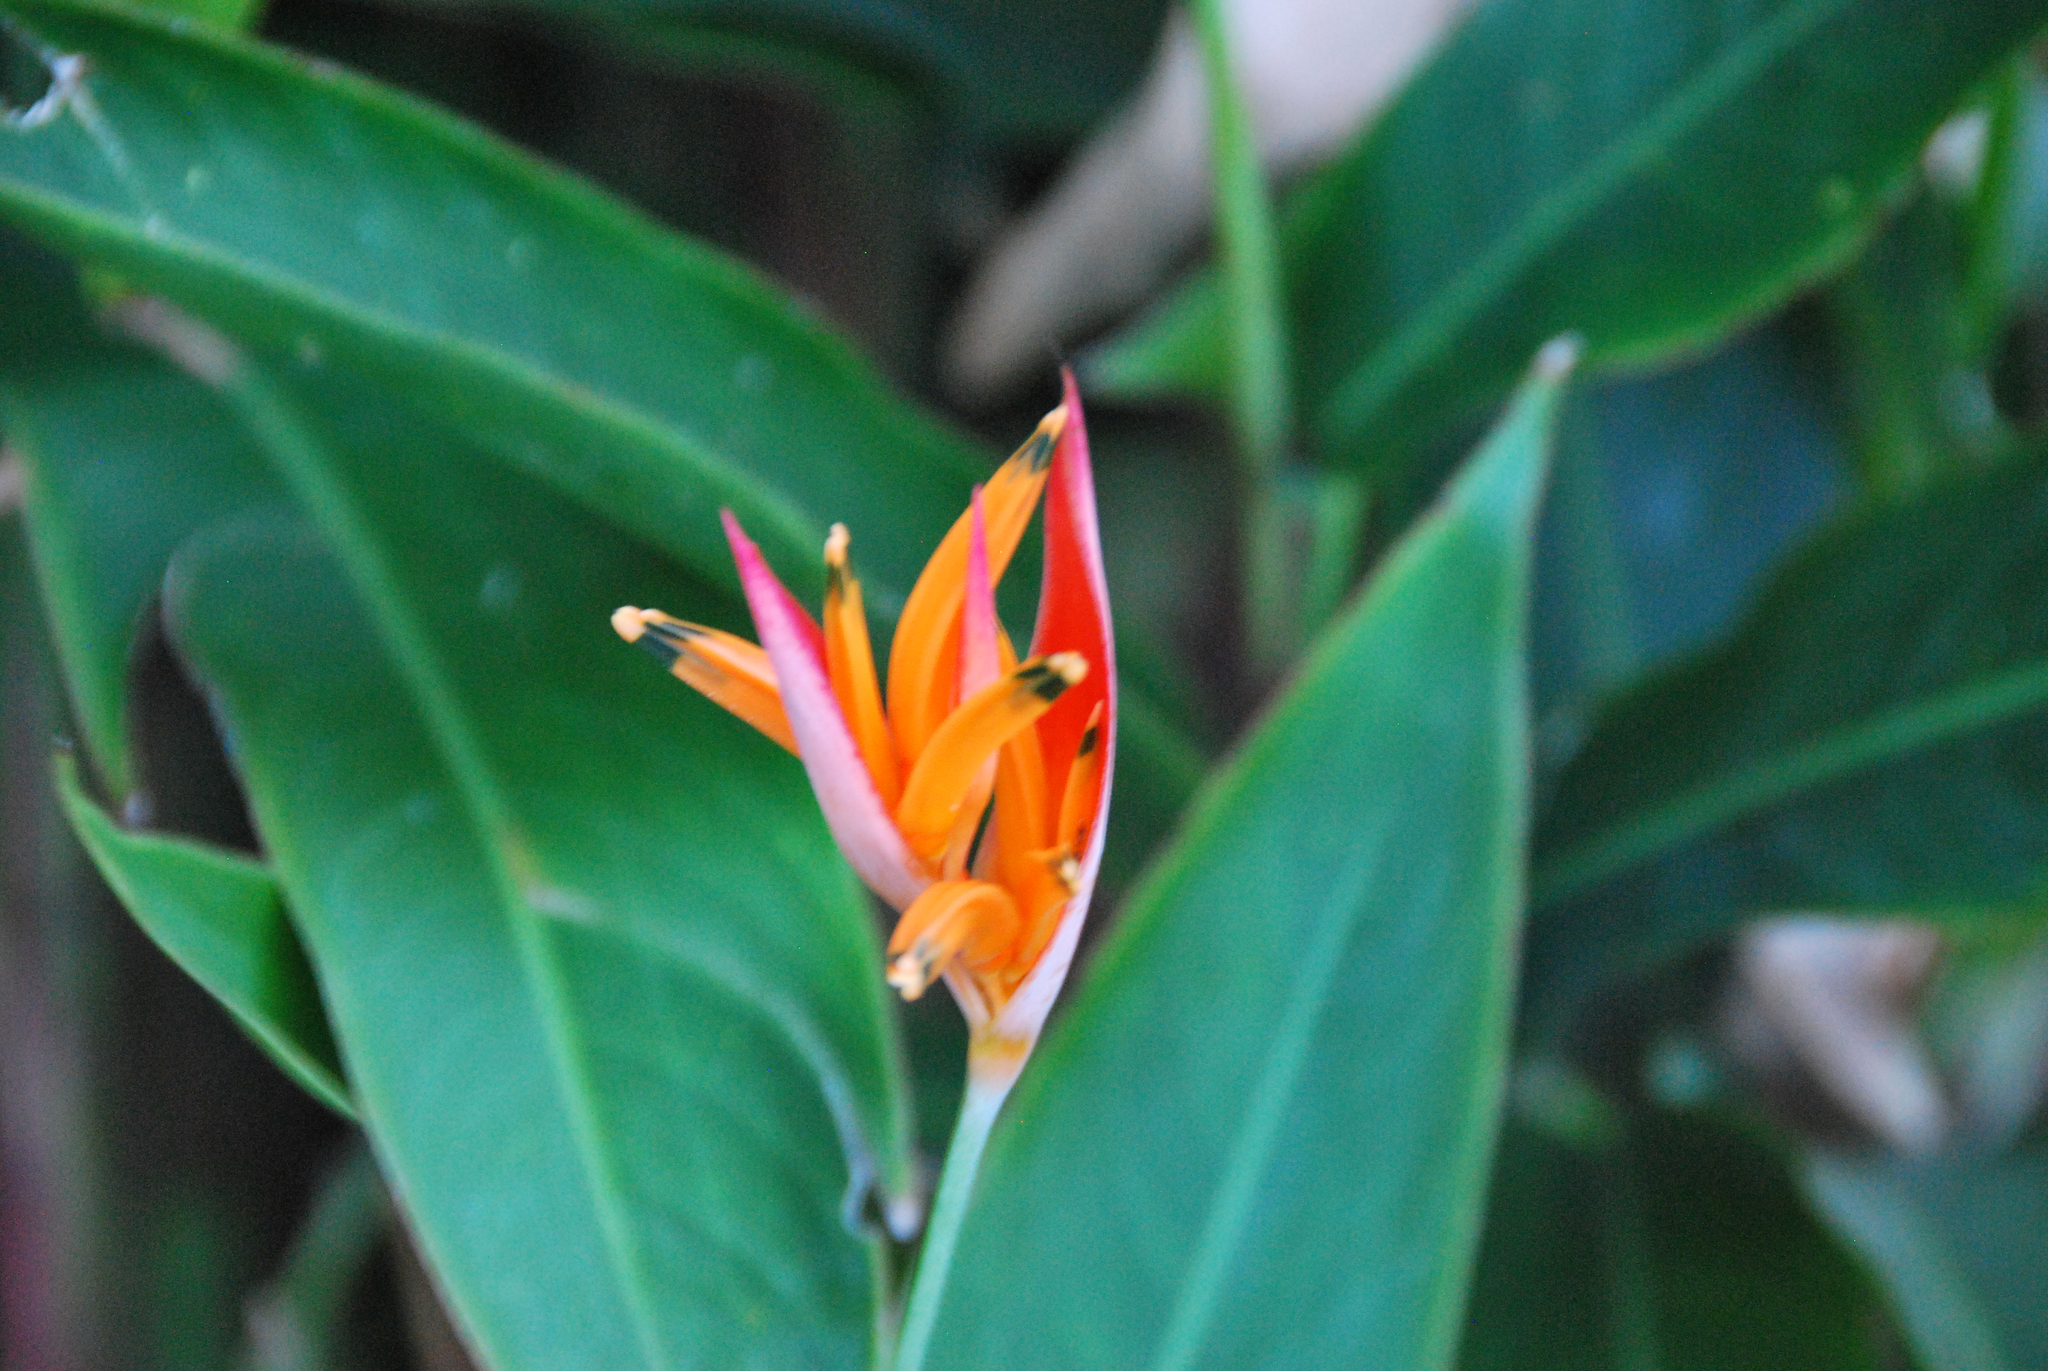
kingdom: Plantae
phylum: Tracheophyta
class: Liliopsida
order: Zingiberales
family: Heliconiaceae
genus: Heliconia
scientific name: Heliconia psittacorum
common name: Parrot's-flower
